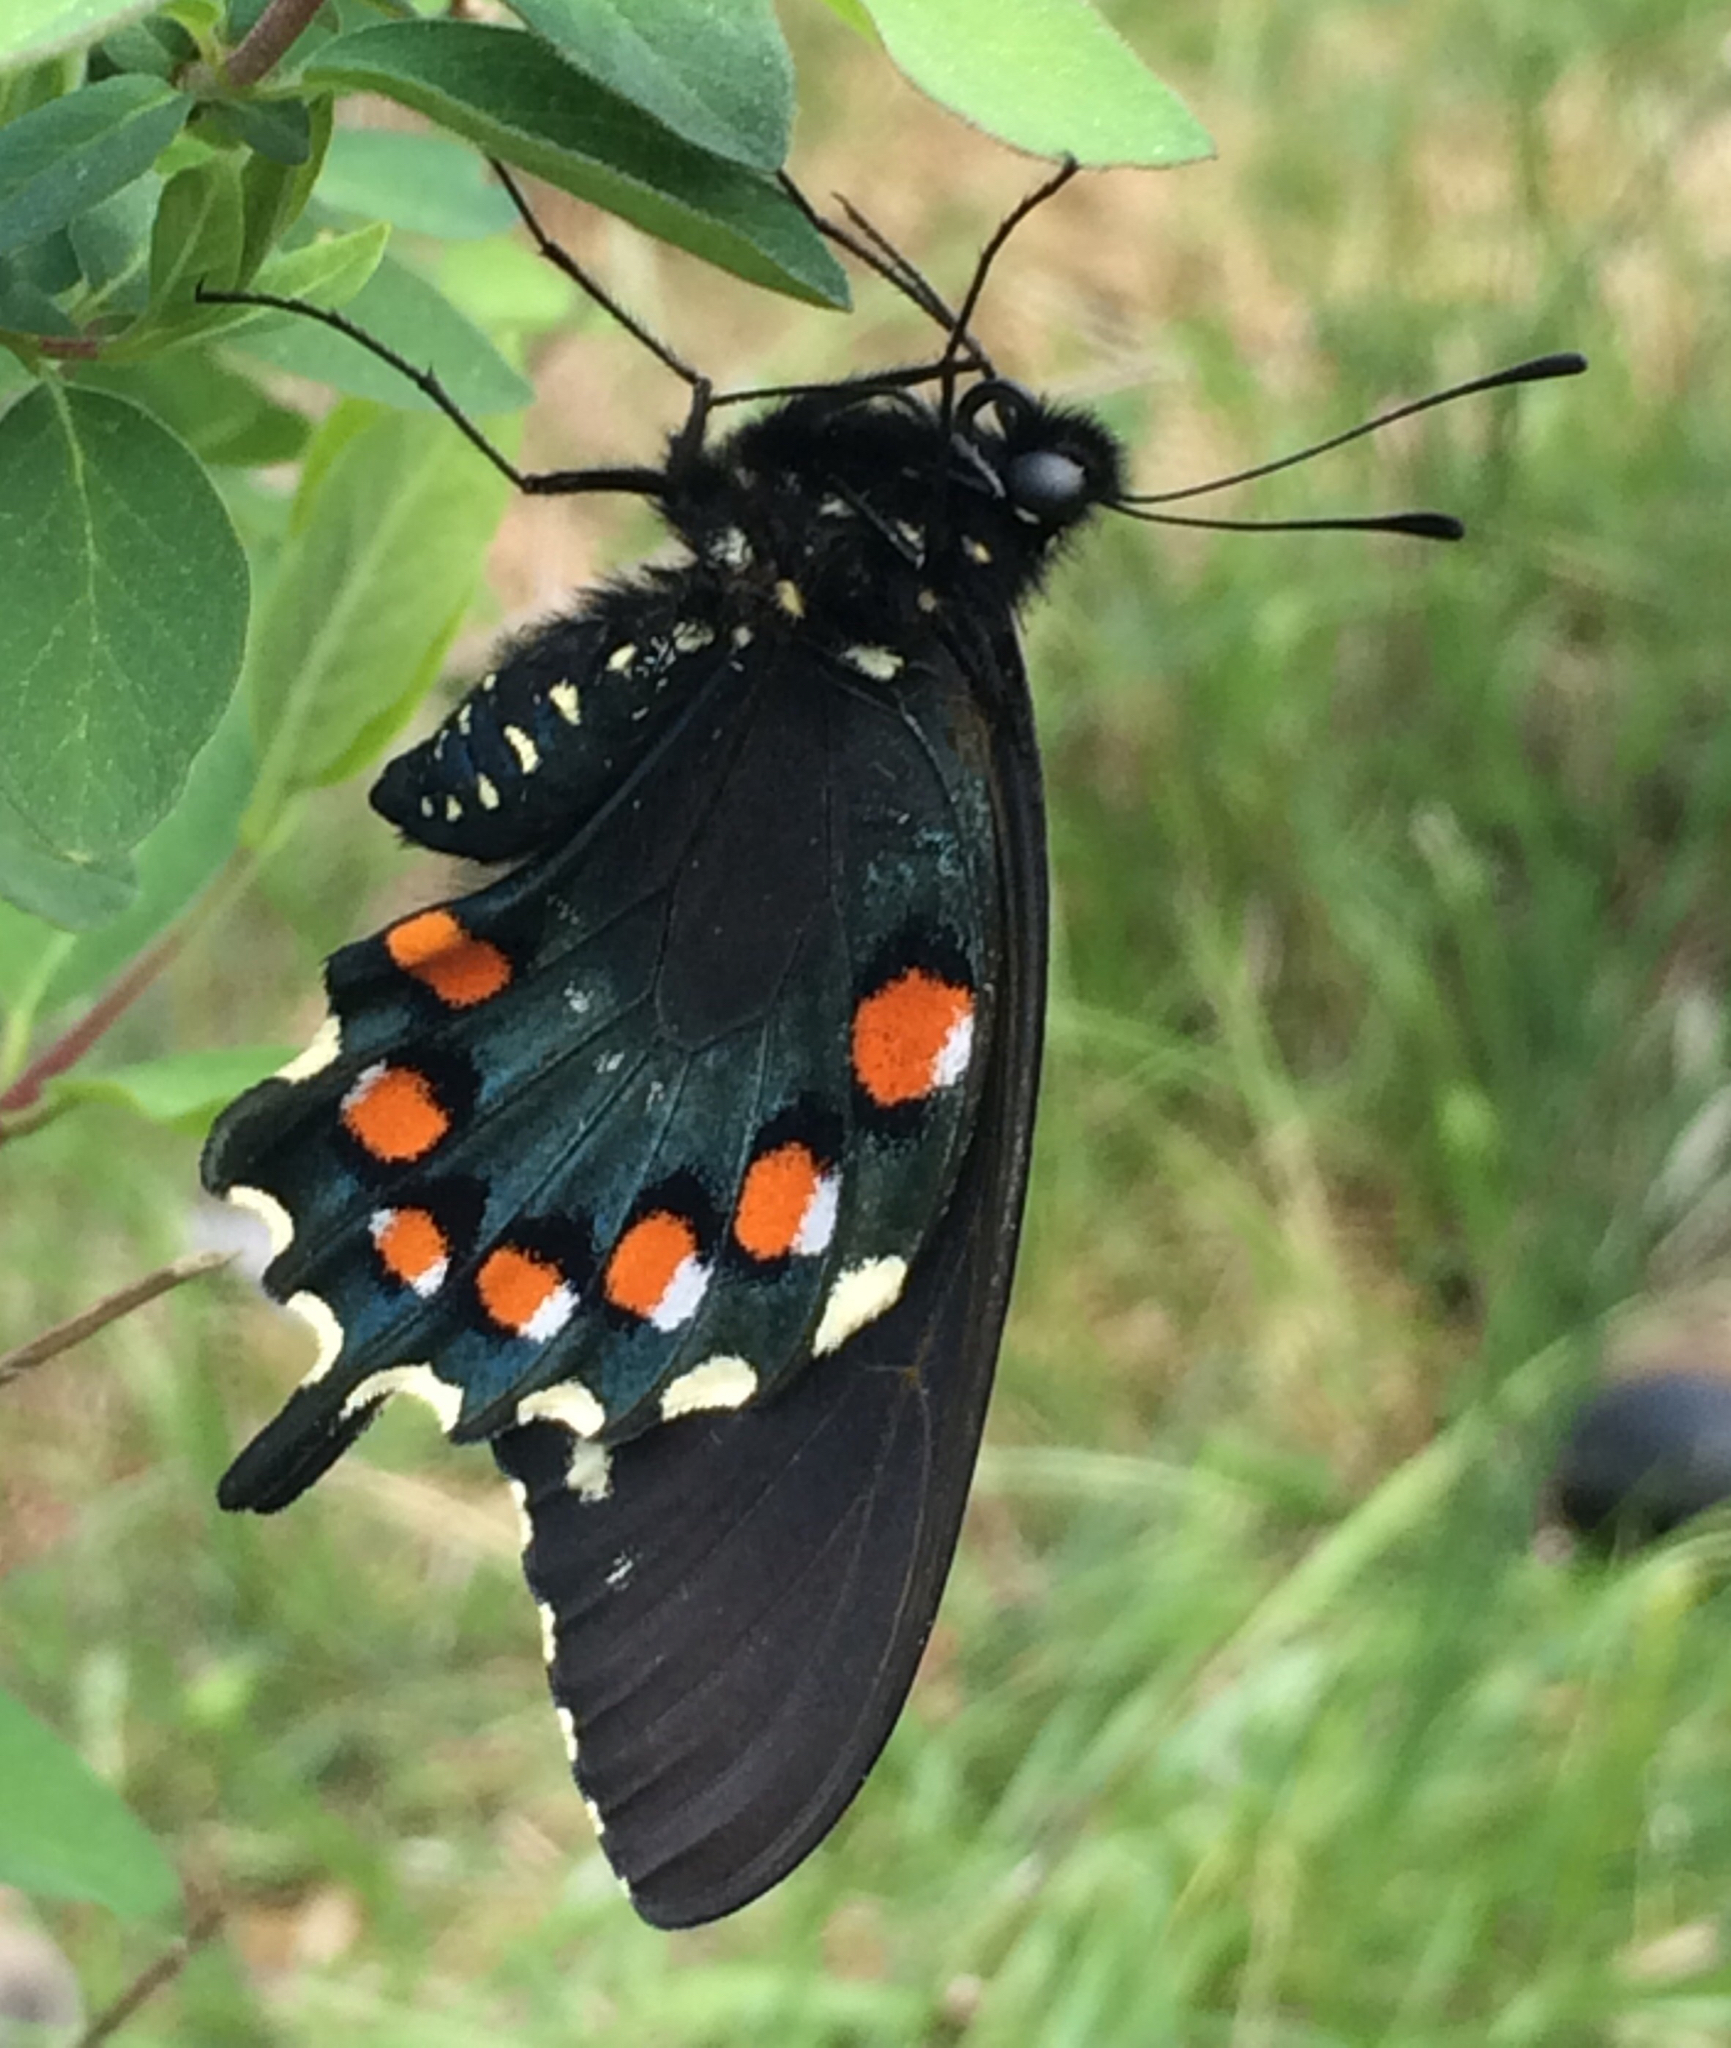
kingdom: Animalia
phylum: Arthropoda
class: Insecta
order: Lepidoptera
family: Papilionidae
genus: Battus
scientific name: Battus philenor
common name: Pipevine swallowtail
